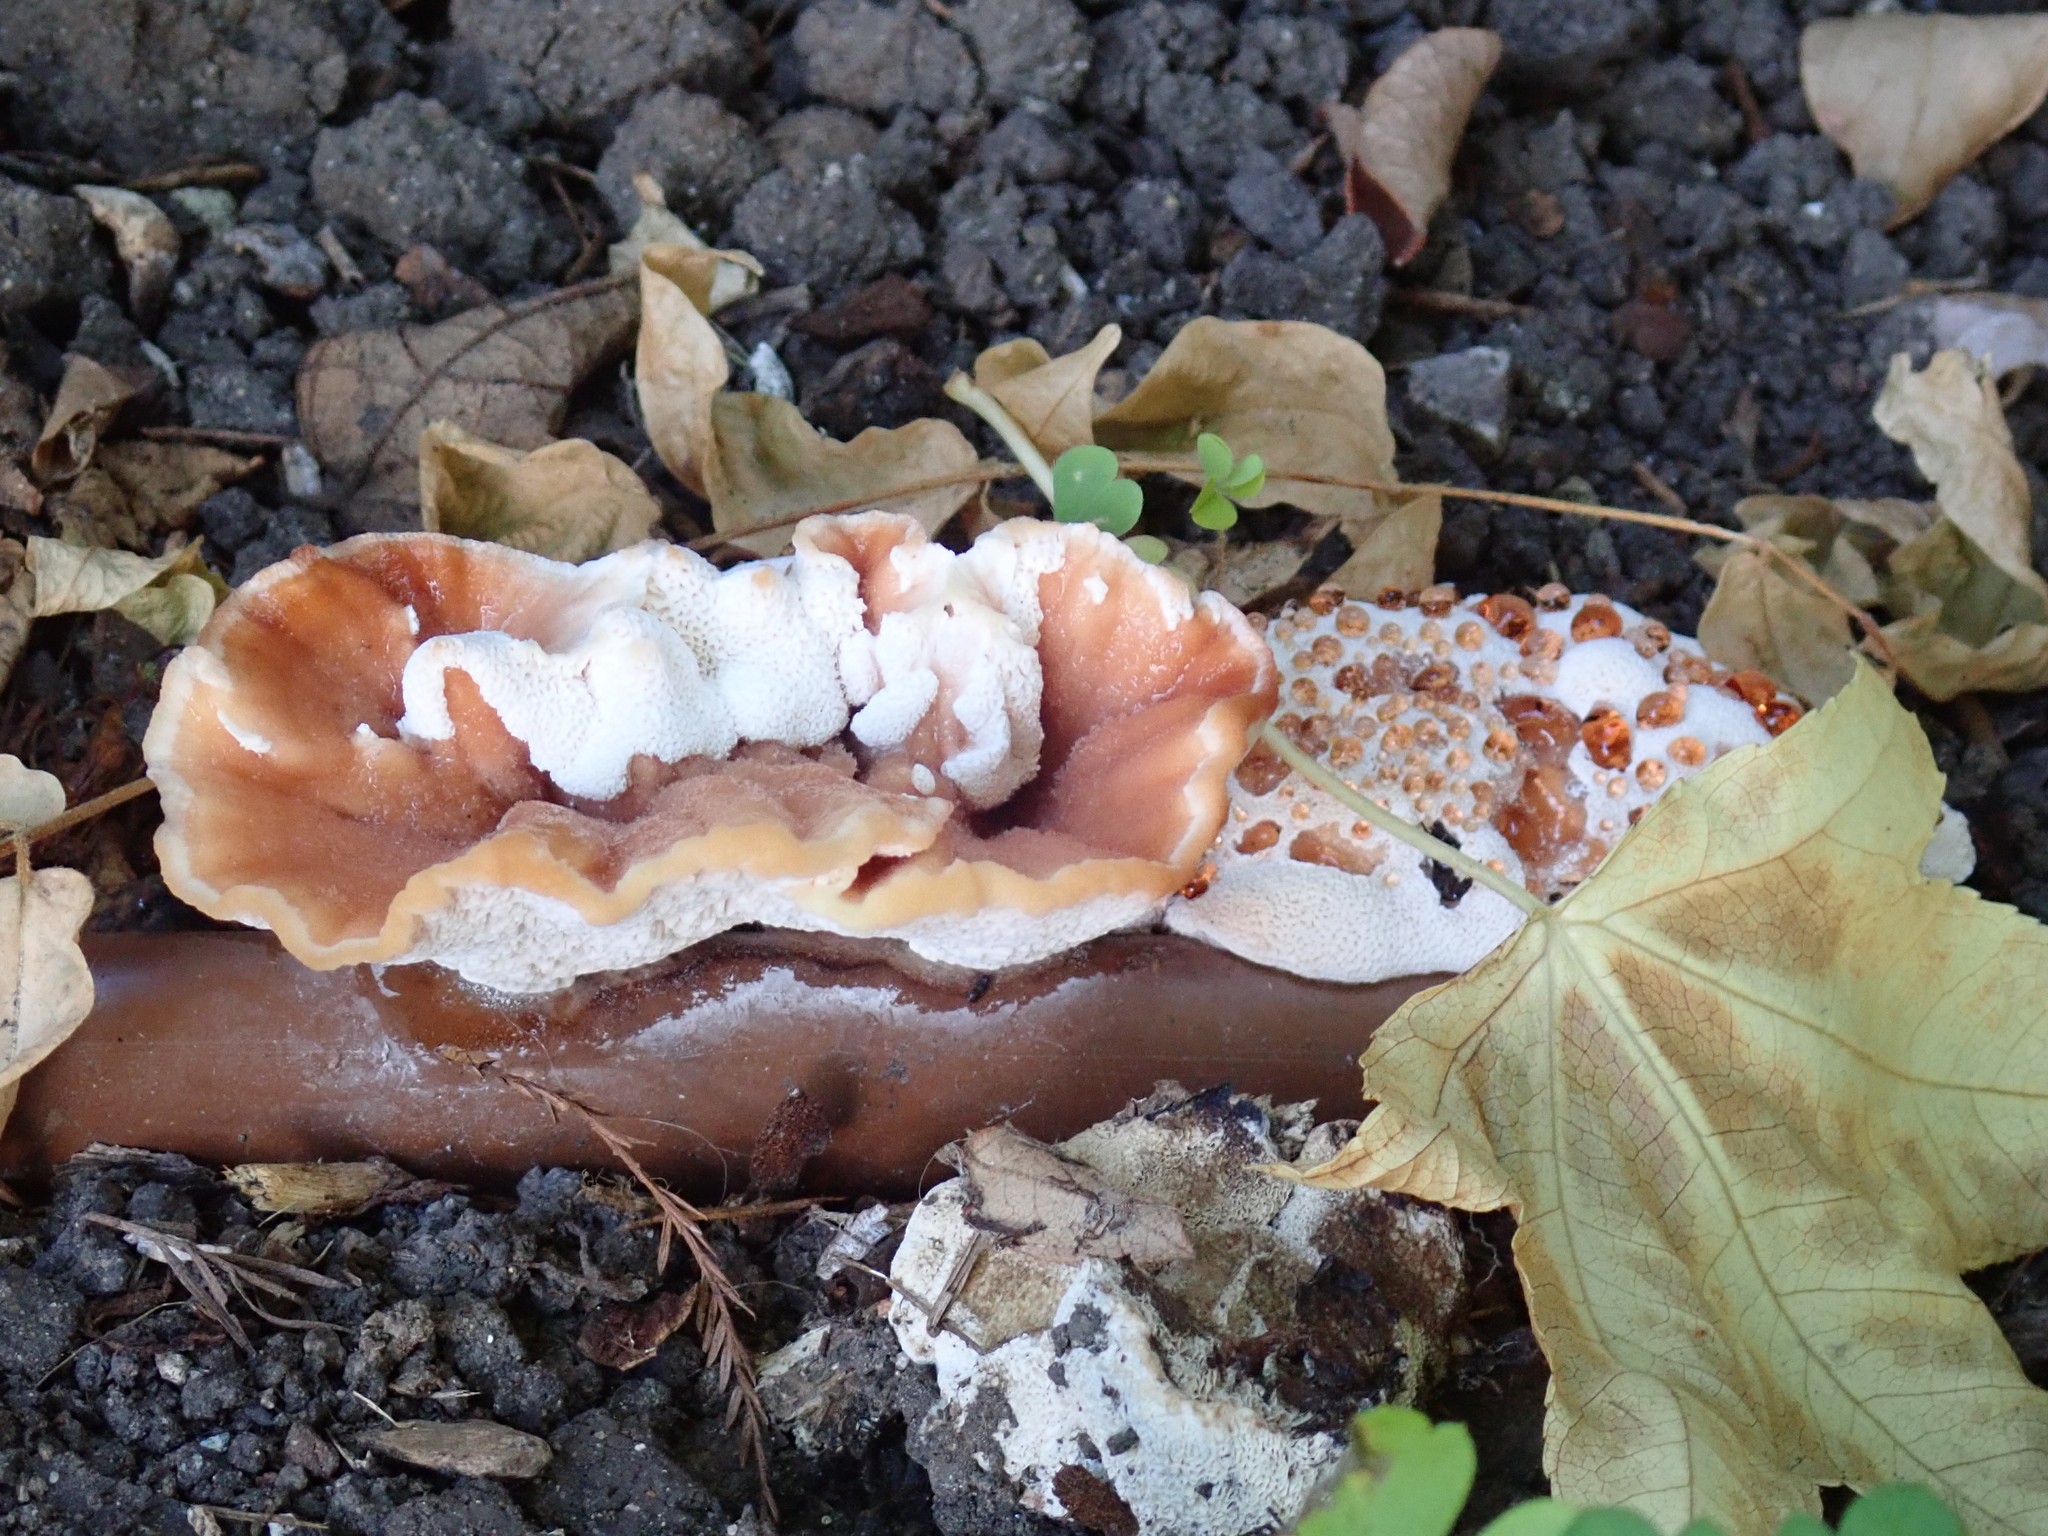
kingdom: Fungi
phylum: Basidiomycota
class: Agaricomycetes
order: Polyporales
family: Podoscyphaceae
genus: Abortiporus
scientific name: Abortiporus biennis
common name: Blushing rosette
